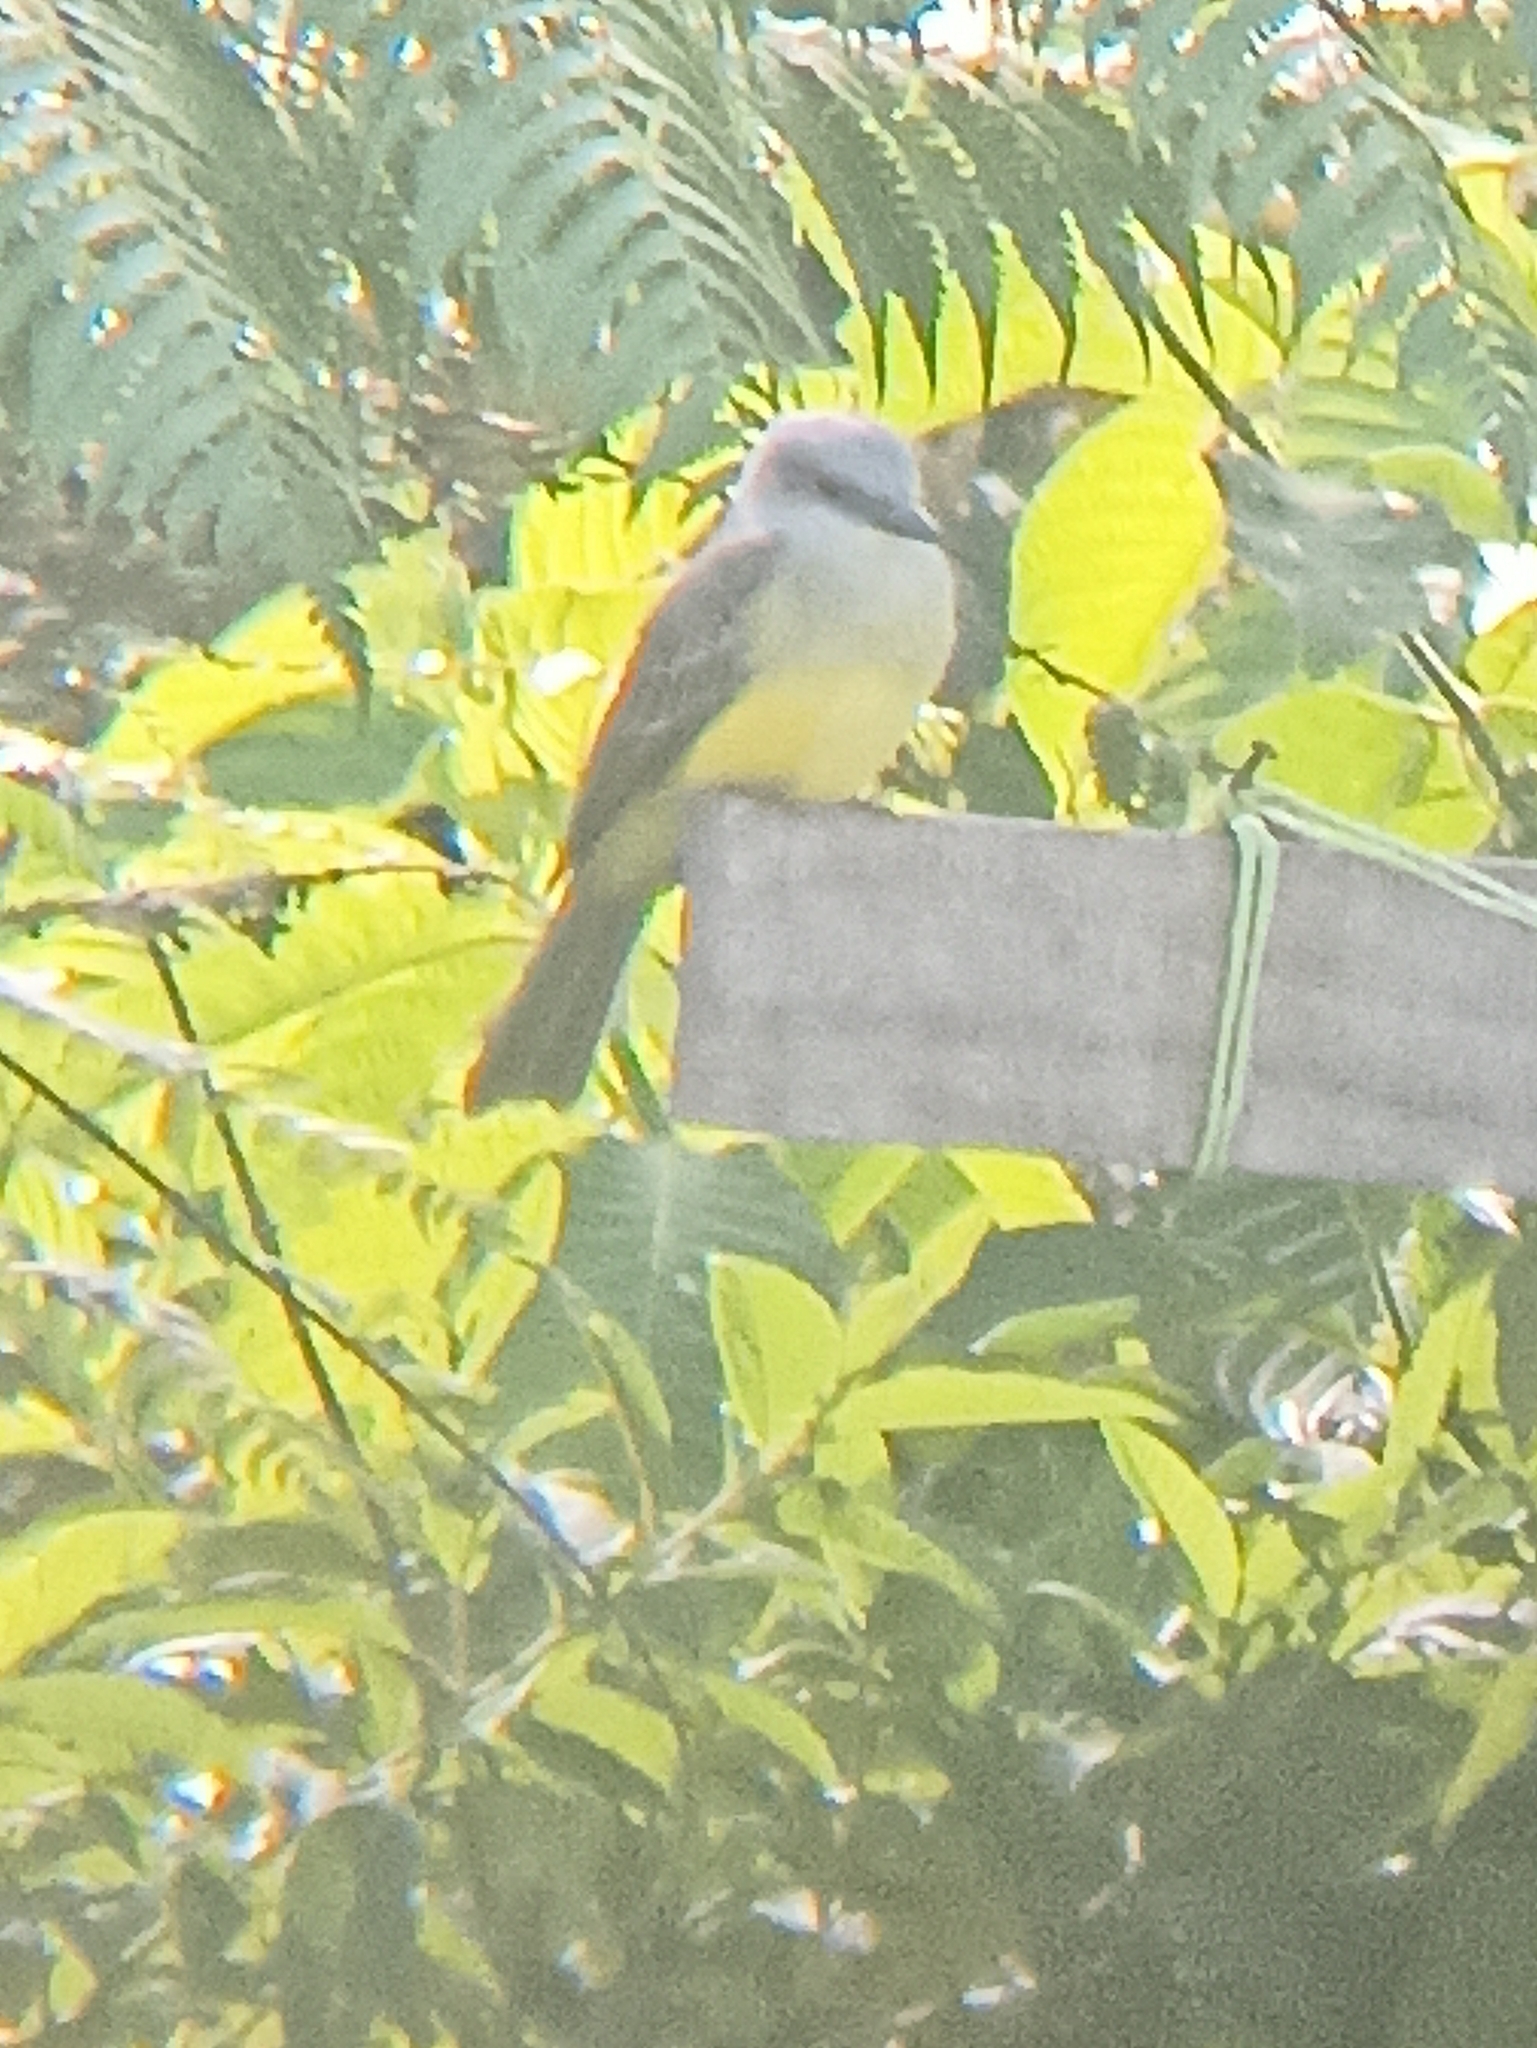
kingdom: Animalia
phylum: Chordata
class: Aves
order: Passeriformes
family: Tyrannidae
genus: Tyrannus
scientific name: Tyrannus melancholicus
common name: Tropical kingbird
